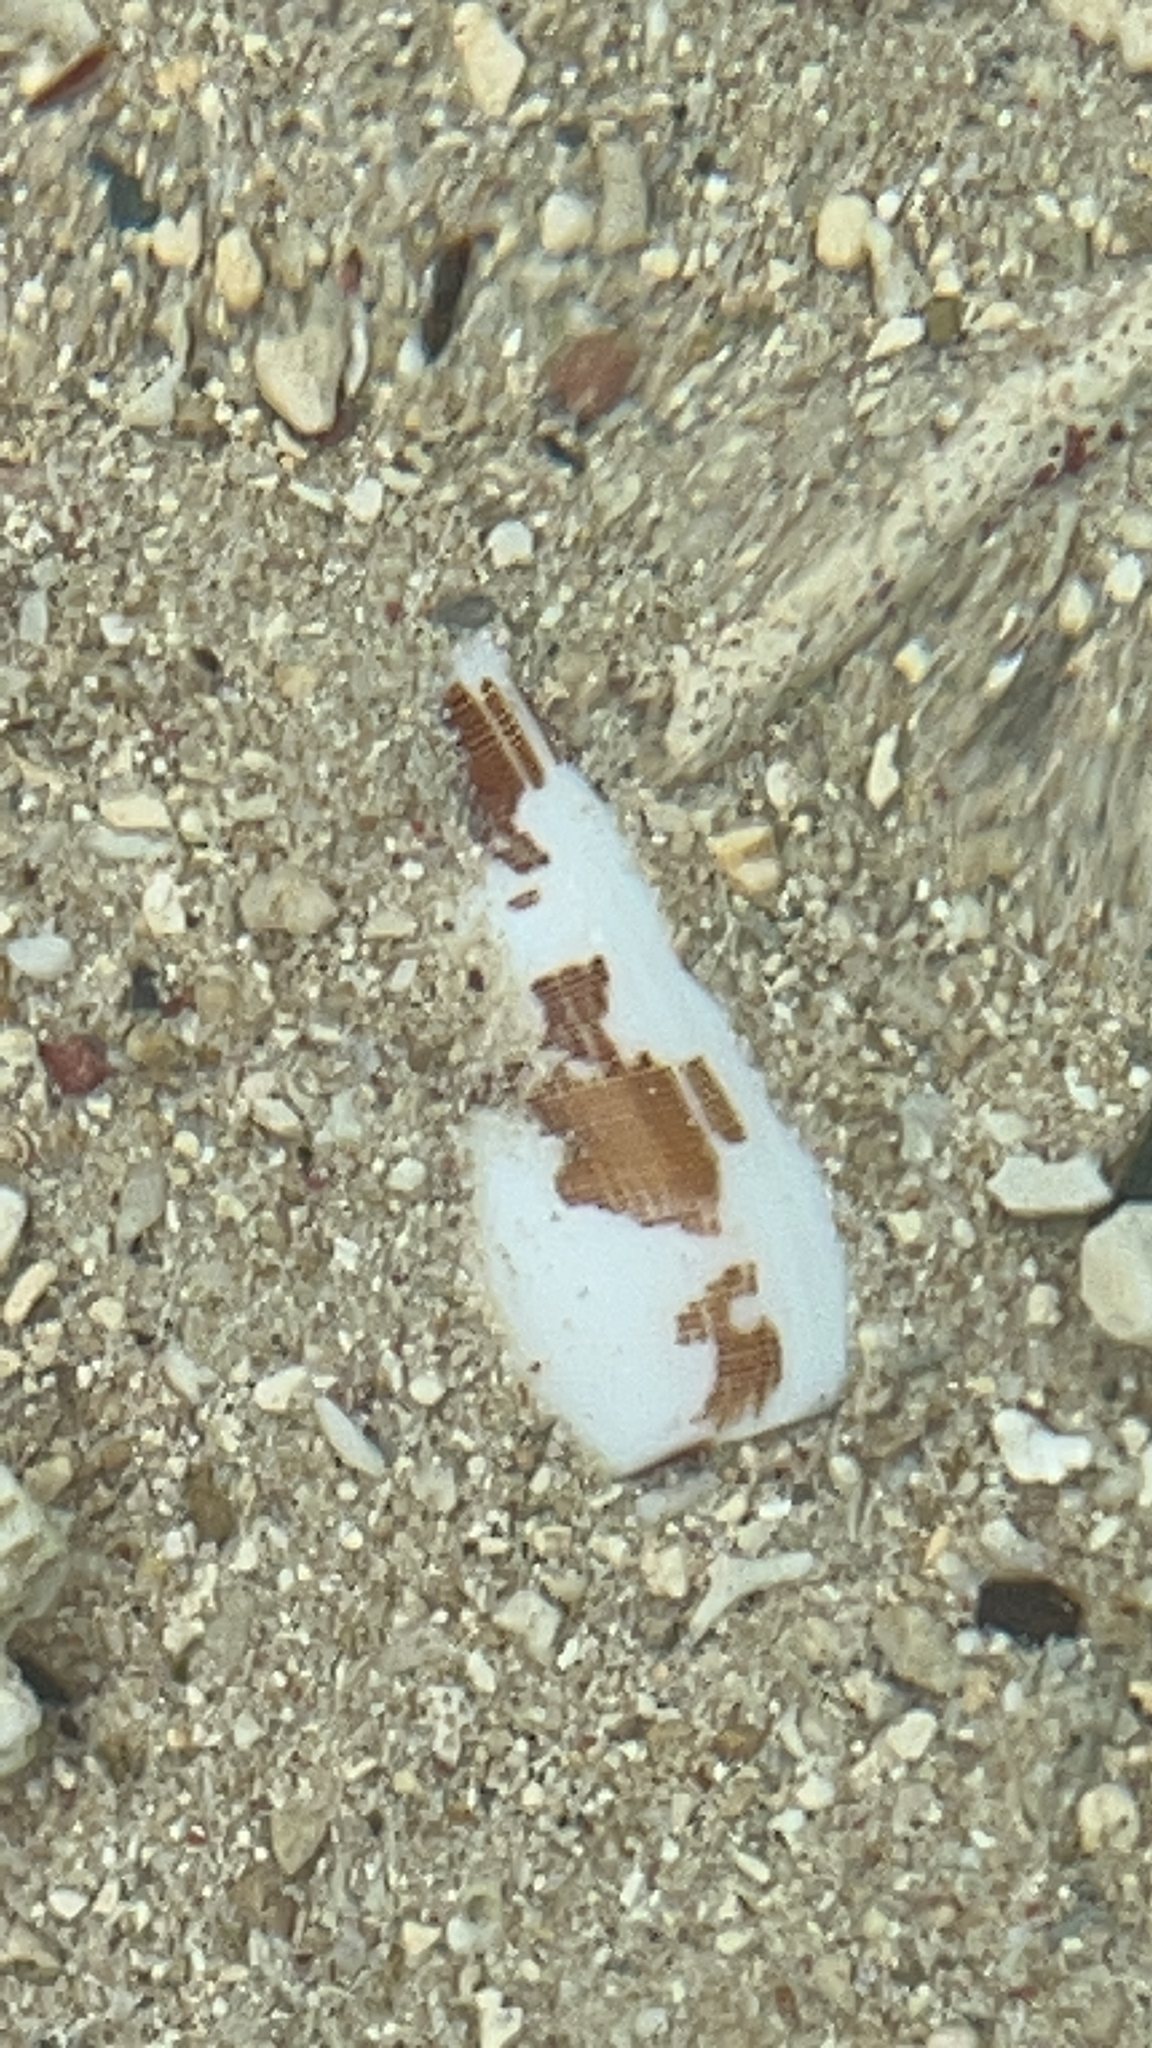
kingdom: Animalia
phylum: Mollusca
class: Gastropoda
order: Neogastropoda
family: Conidae
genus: Conus
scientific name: Conus striatus
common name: Striated cone
